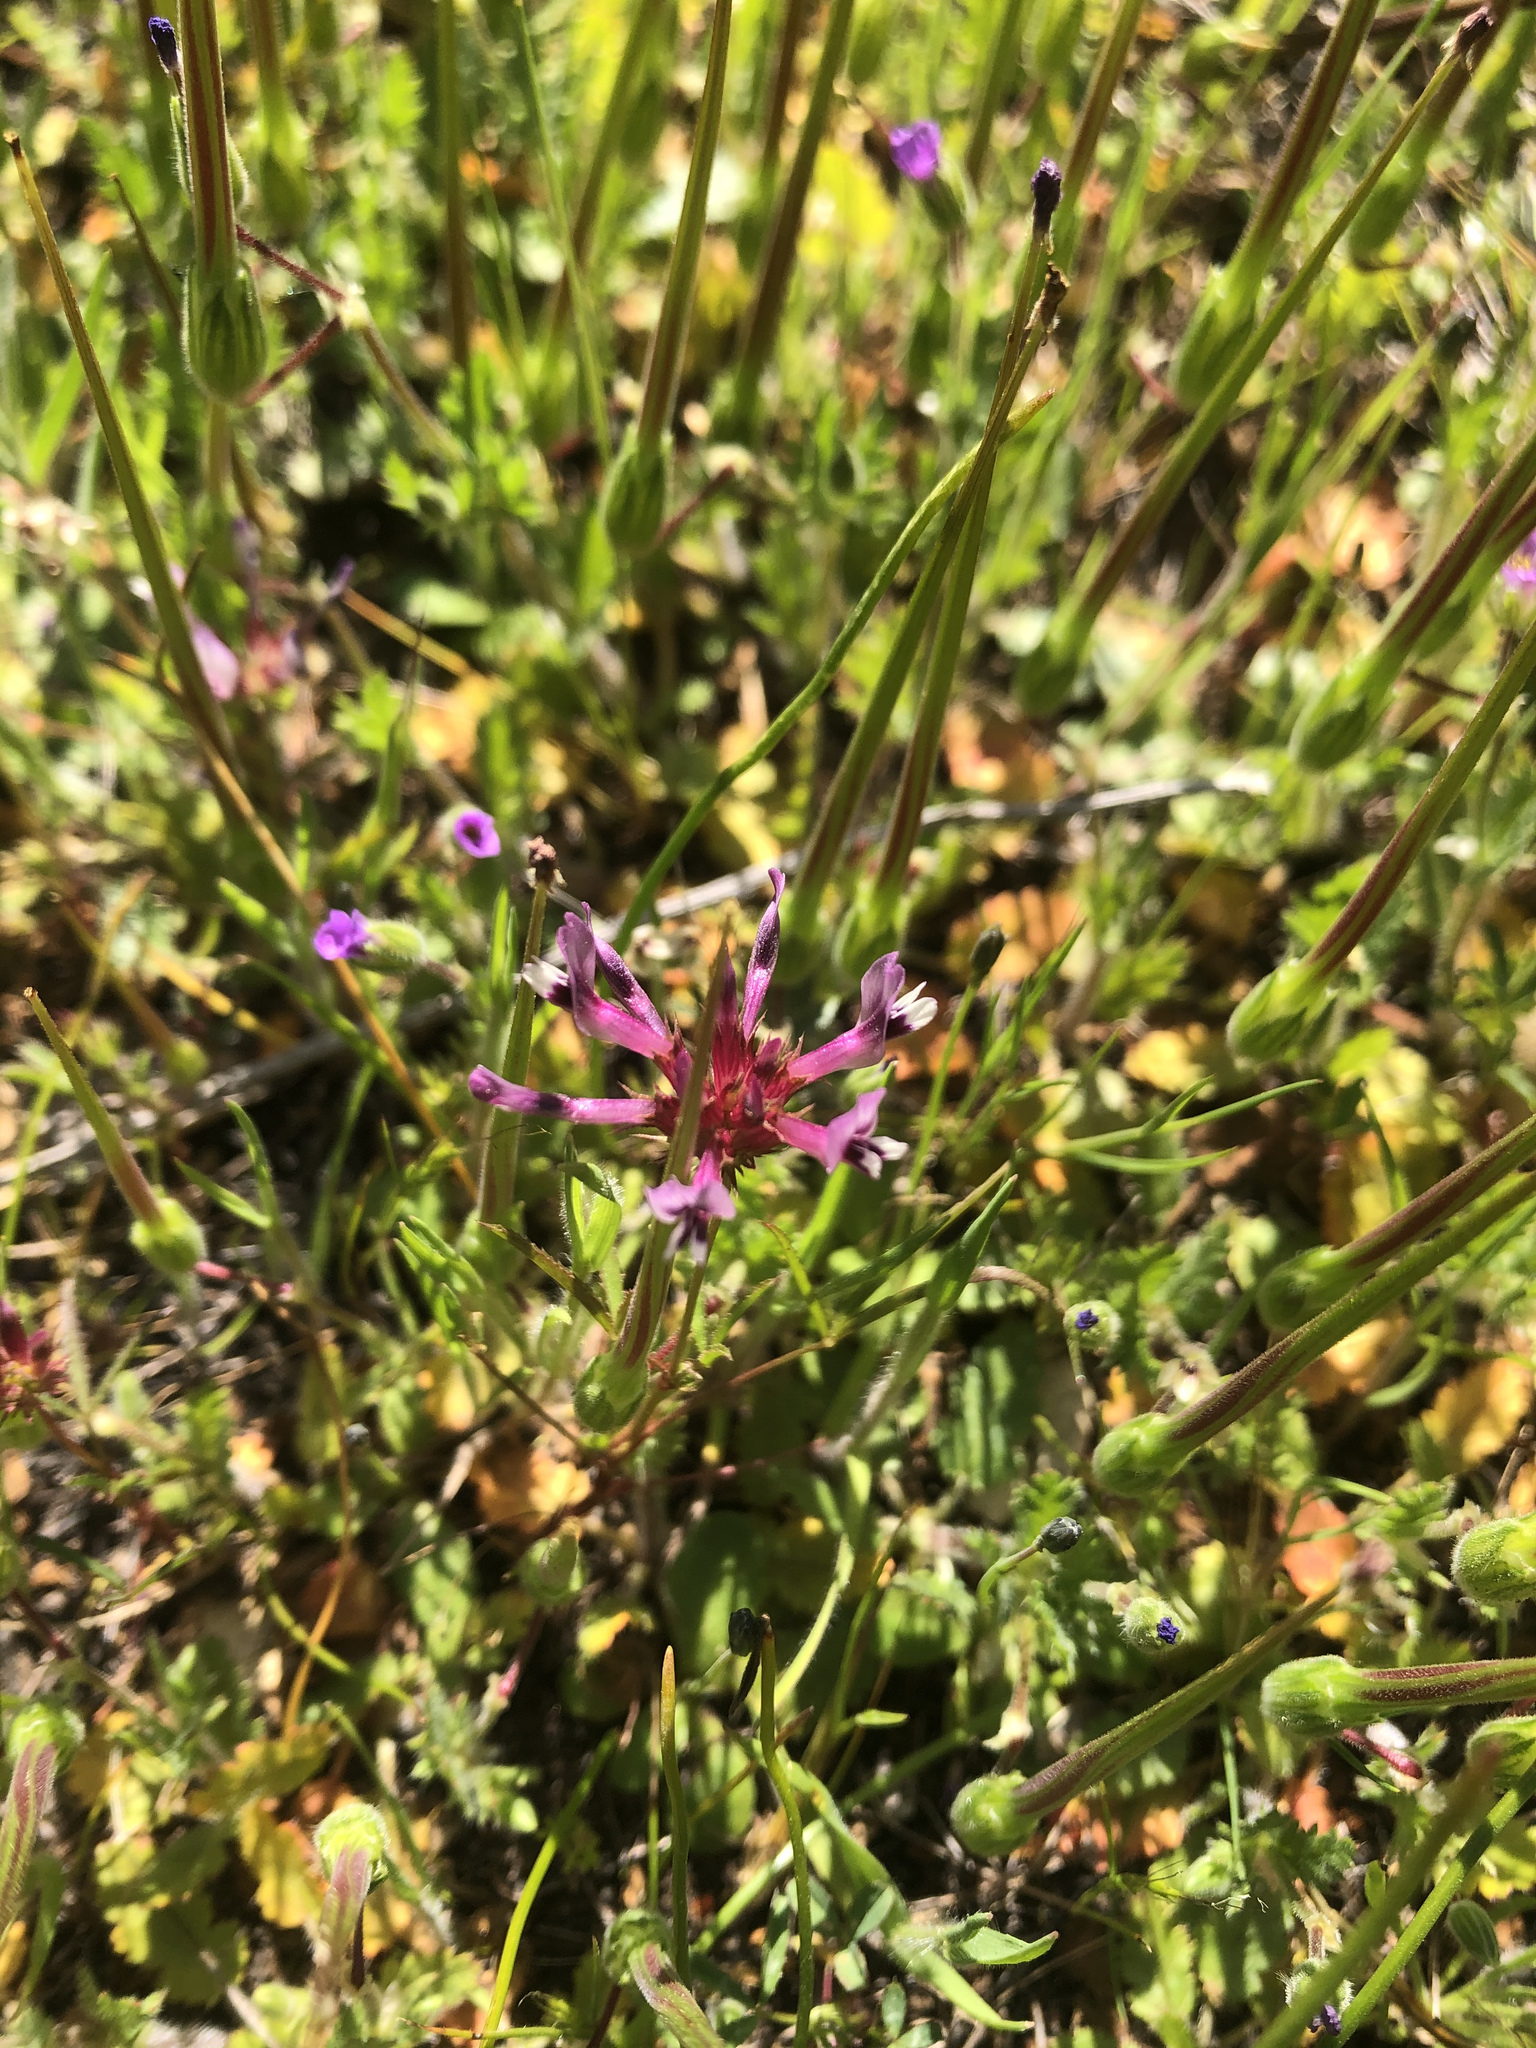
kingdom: Plantae
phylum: Tracheophyta
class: Magnoliopsida
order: Fabales
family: Fabaceae
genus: Trifolium
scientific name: Trifolium willdenovii
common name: Tomcat clover
